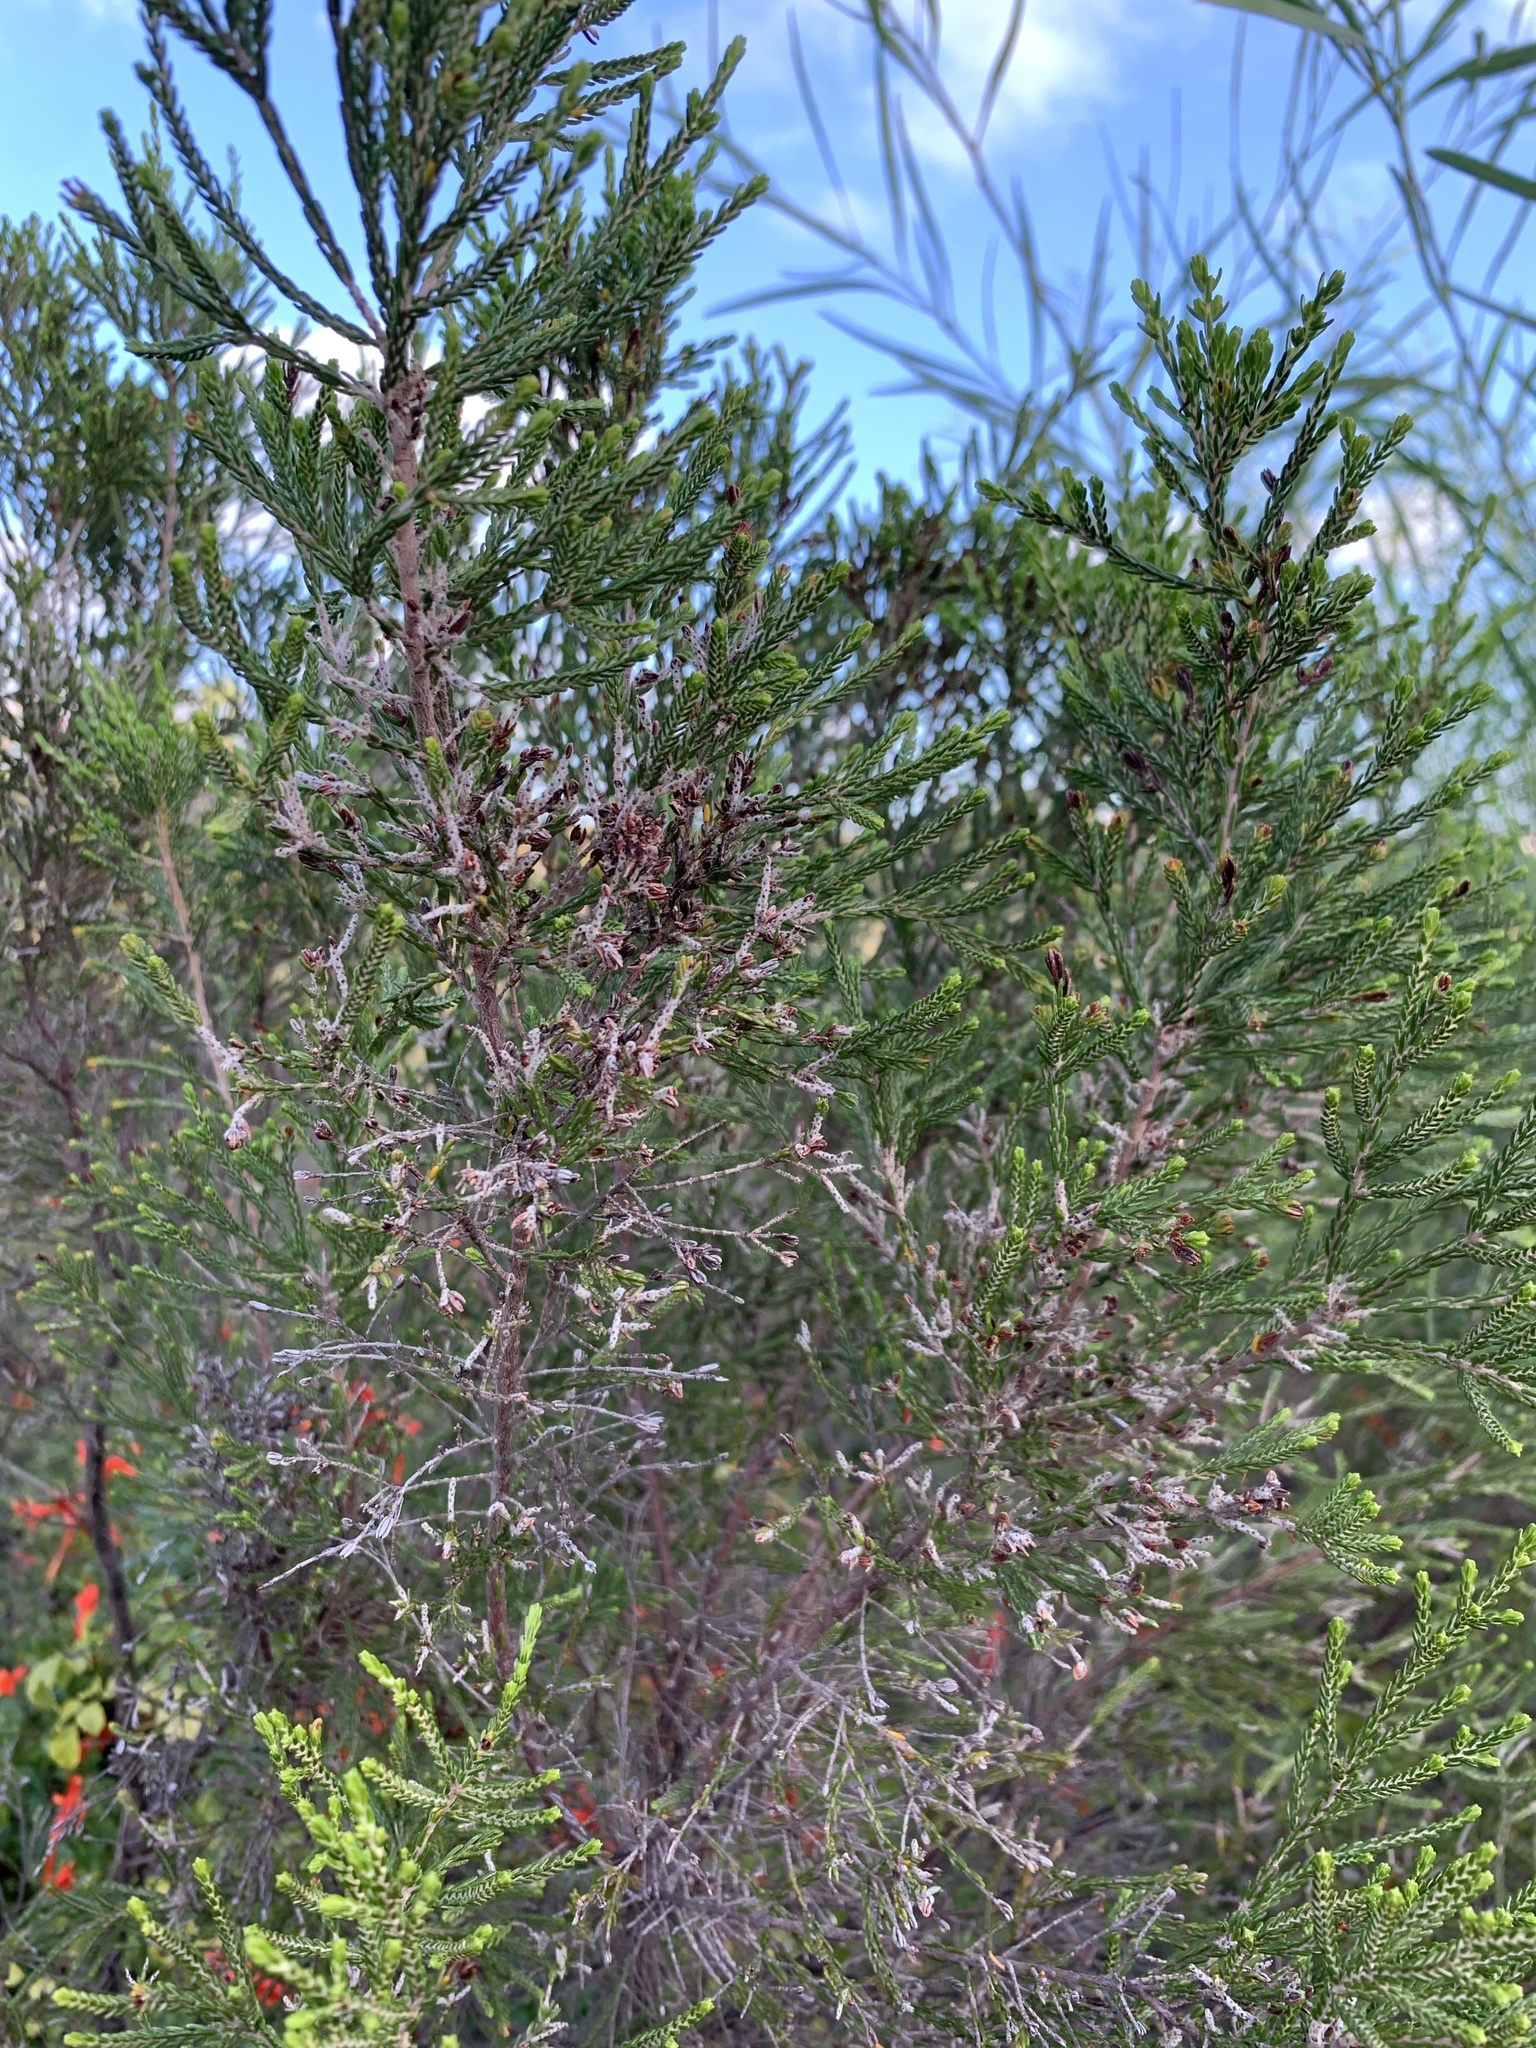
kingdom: Plantae
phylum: Tracheophyta
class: Magnoliopsida
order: Malvales
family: Thymelaeaceae
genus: Passerina
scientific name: Passerina corymbosa
